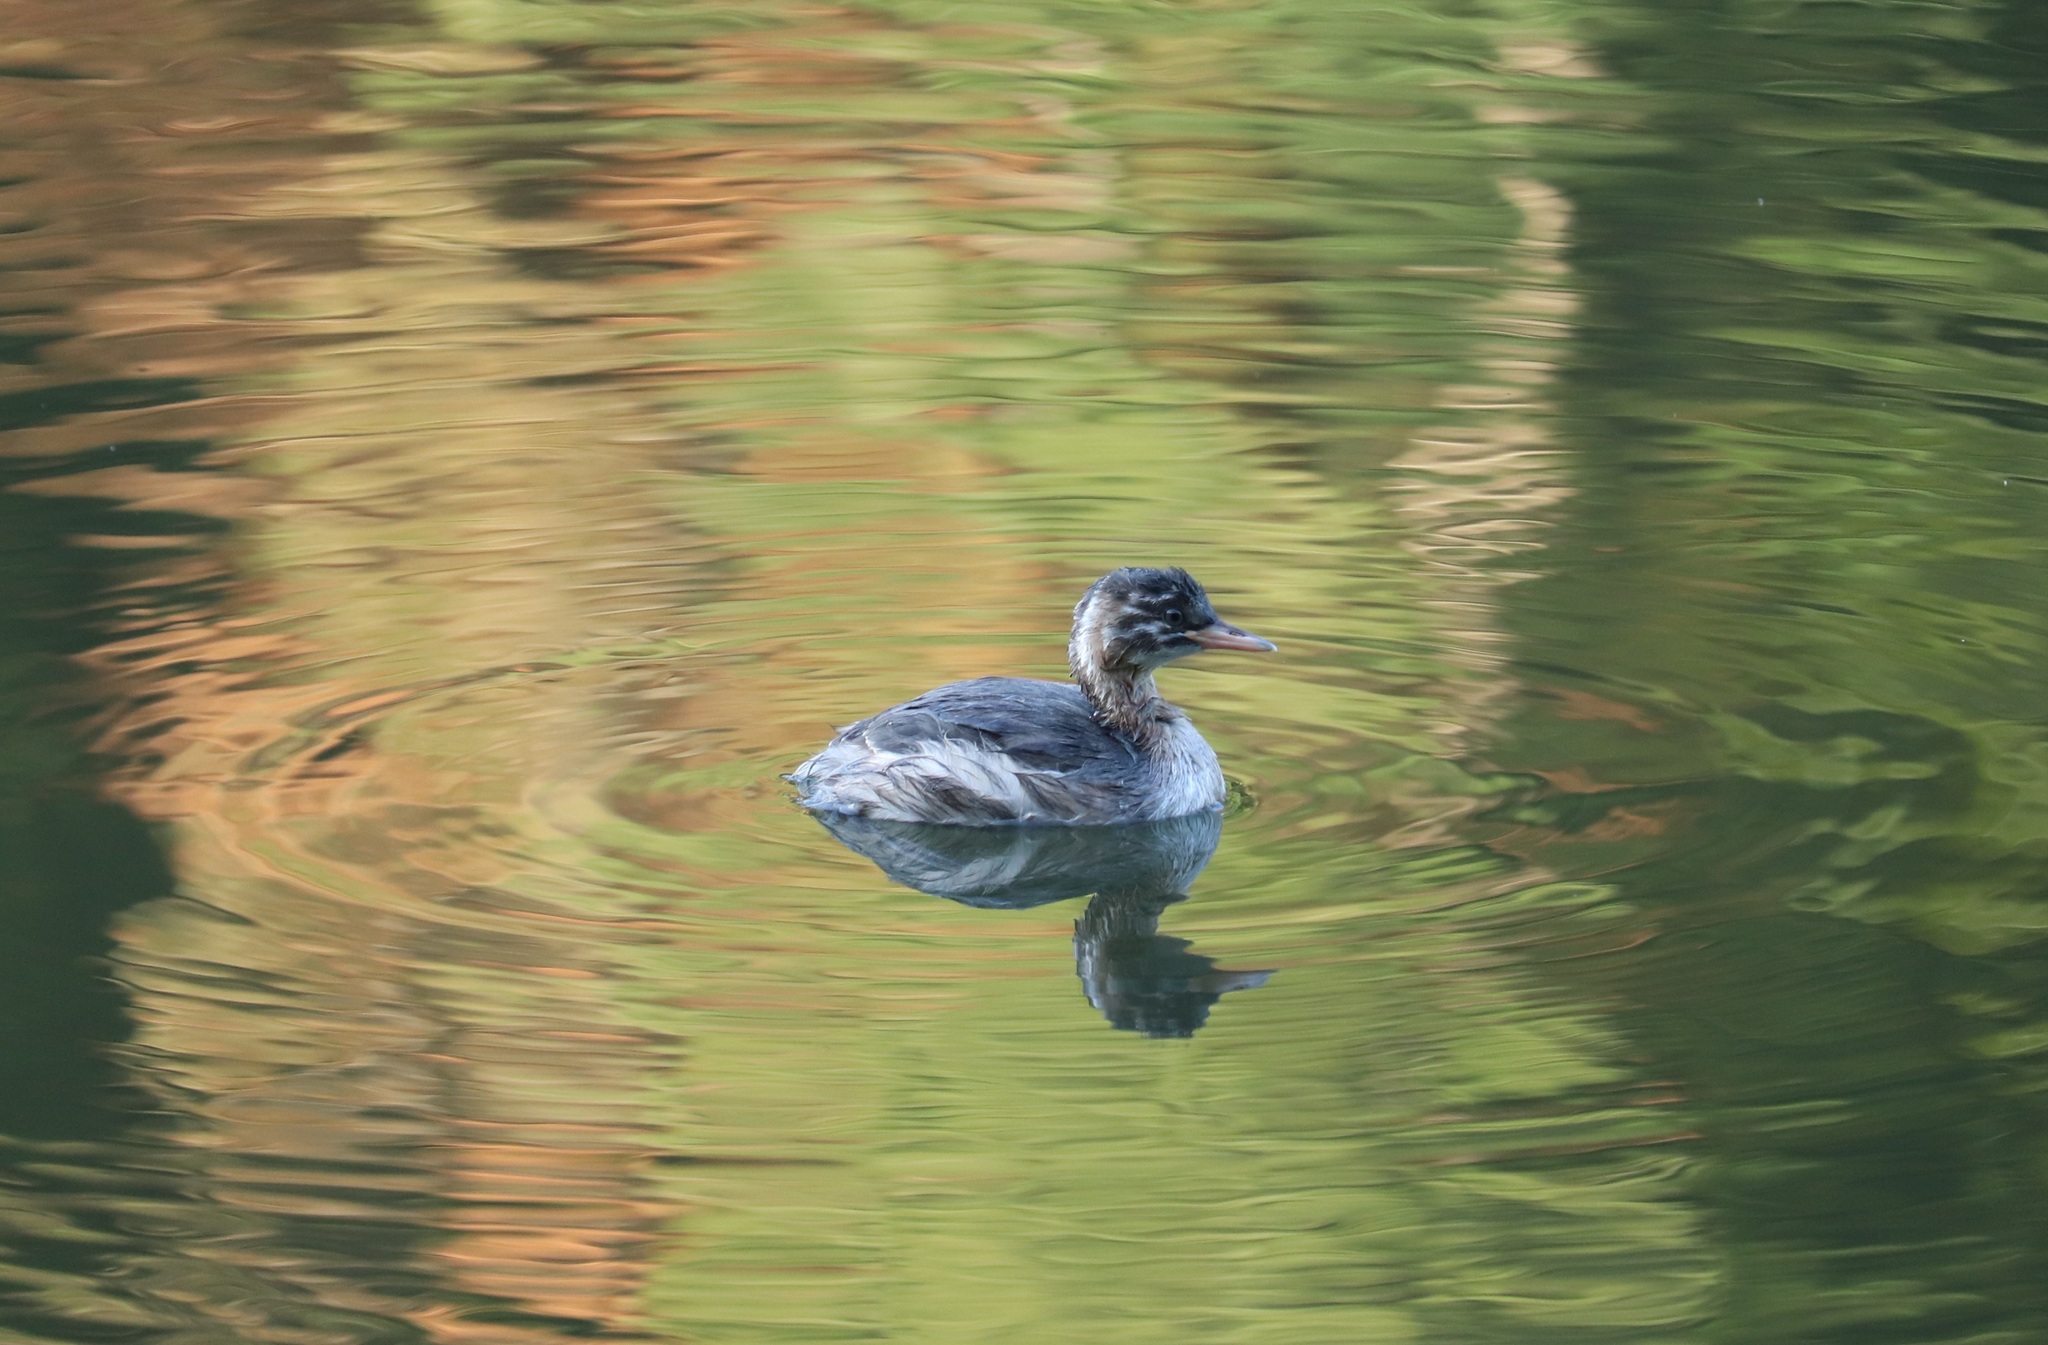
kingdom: Animalia
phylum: Chordata
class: Aves
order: Podicipediformes
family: Podicipedidae
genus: Tachybaptus
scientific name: Tachybaptus ruficollis
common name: Little grebe
